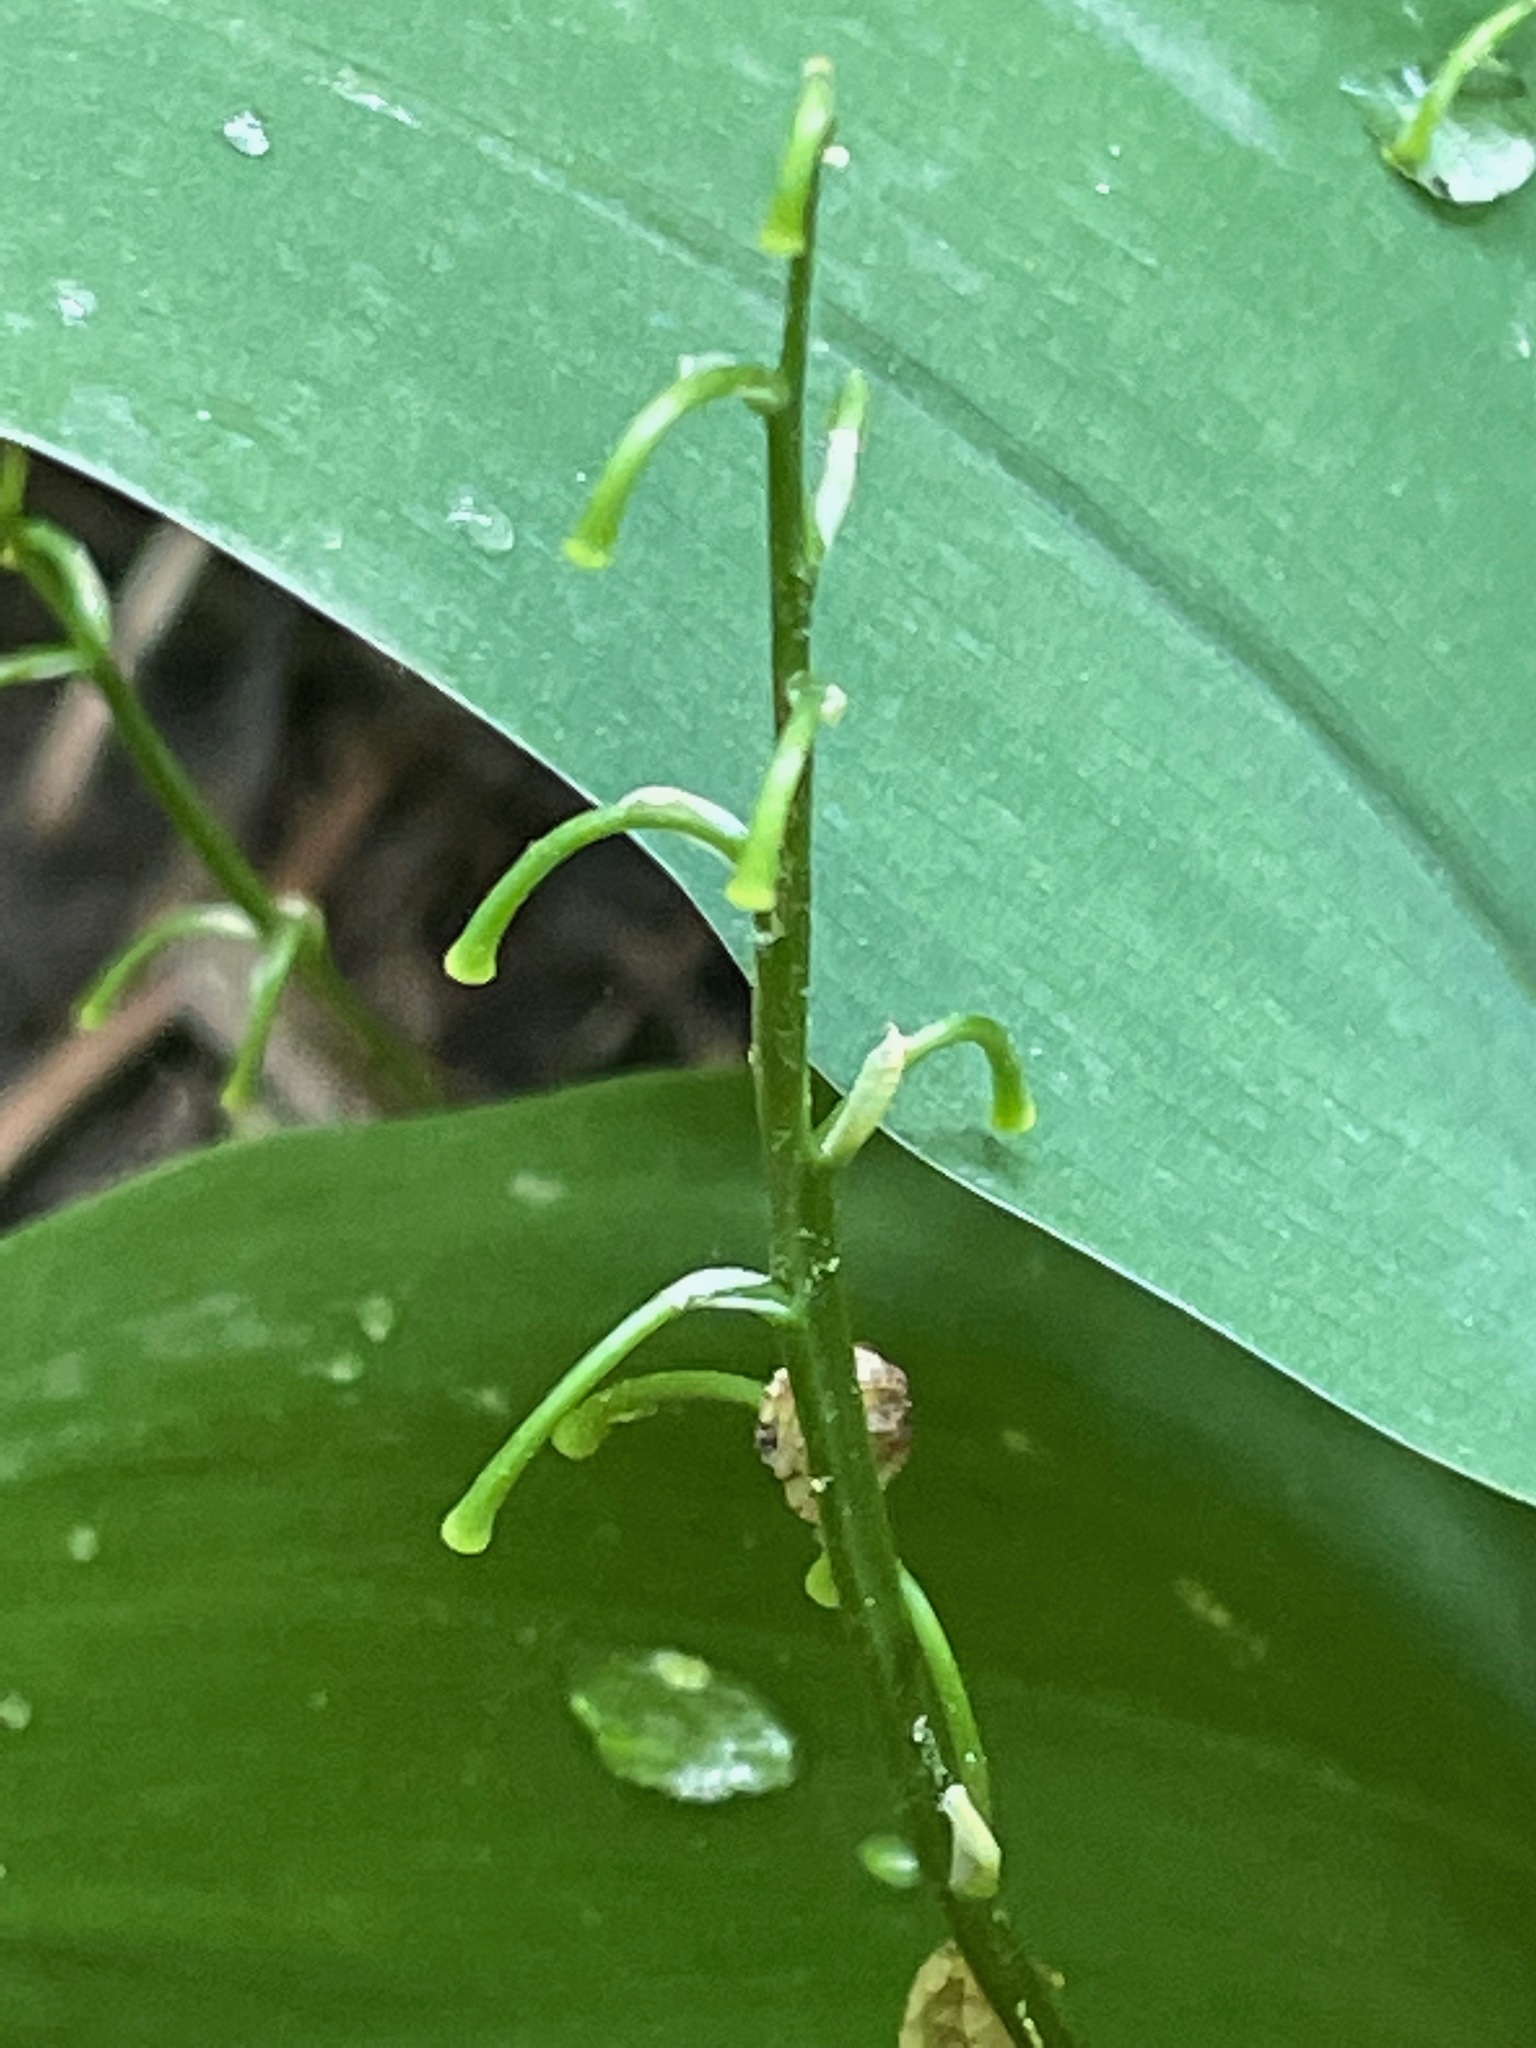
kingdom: Plantae
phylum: Tracheophyta
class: Liliopsida
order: Asparagales
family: Asparagaceae
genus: Convallaria
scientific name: Convallaria majalis
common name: Lily-of-the-valley
